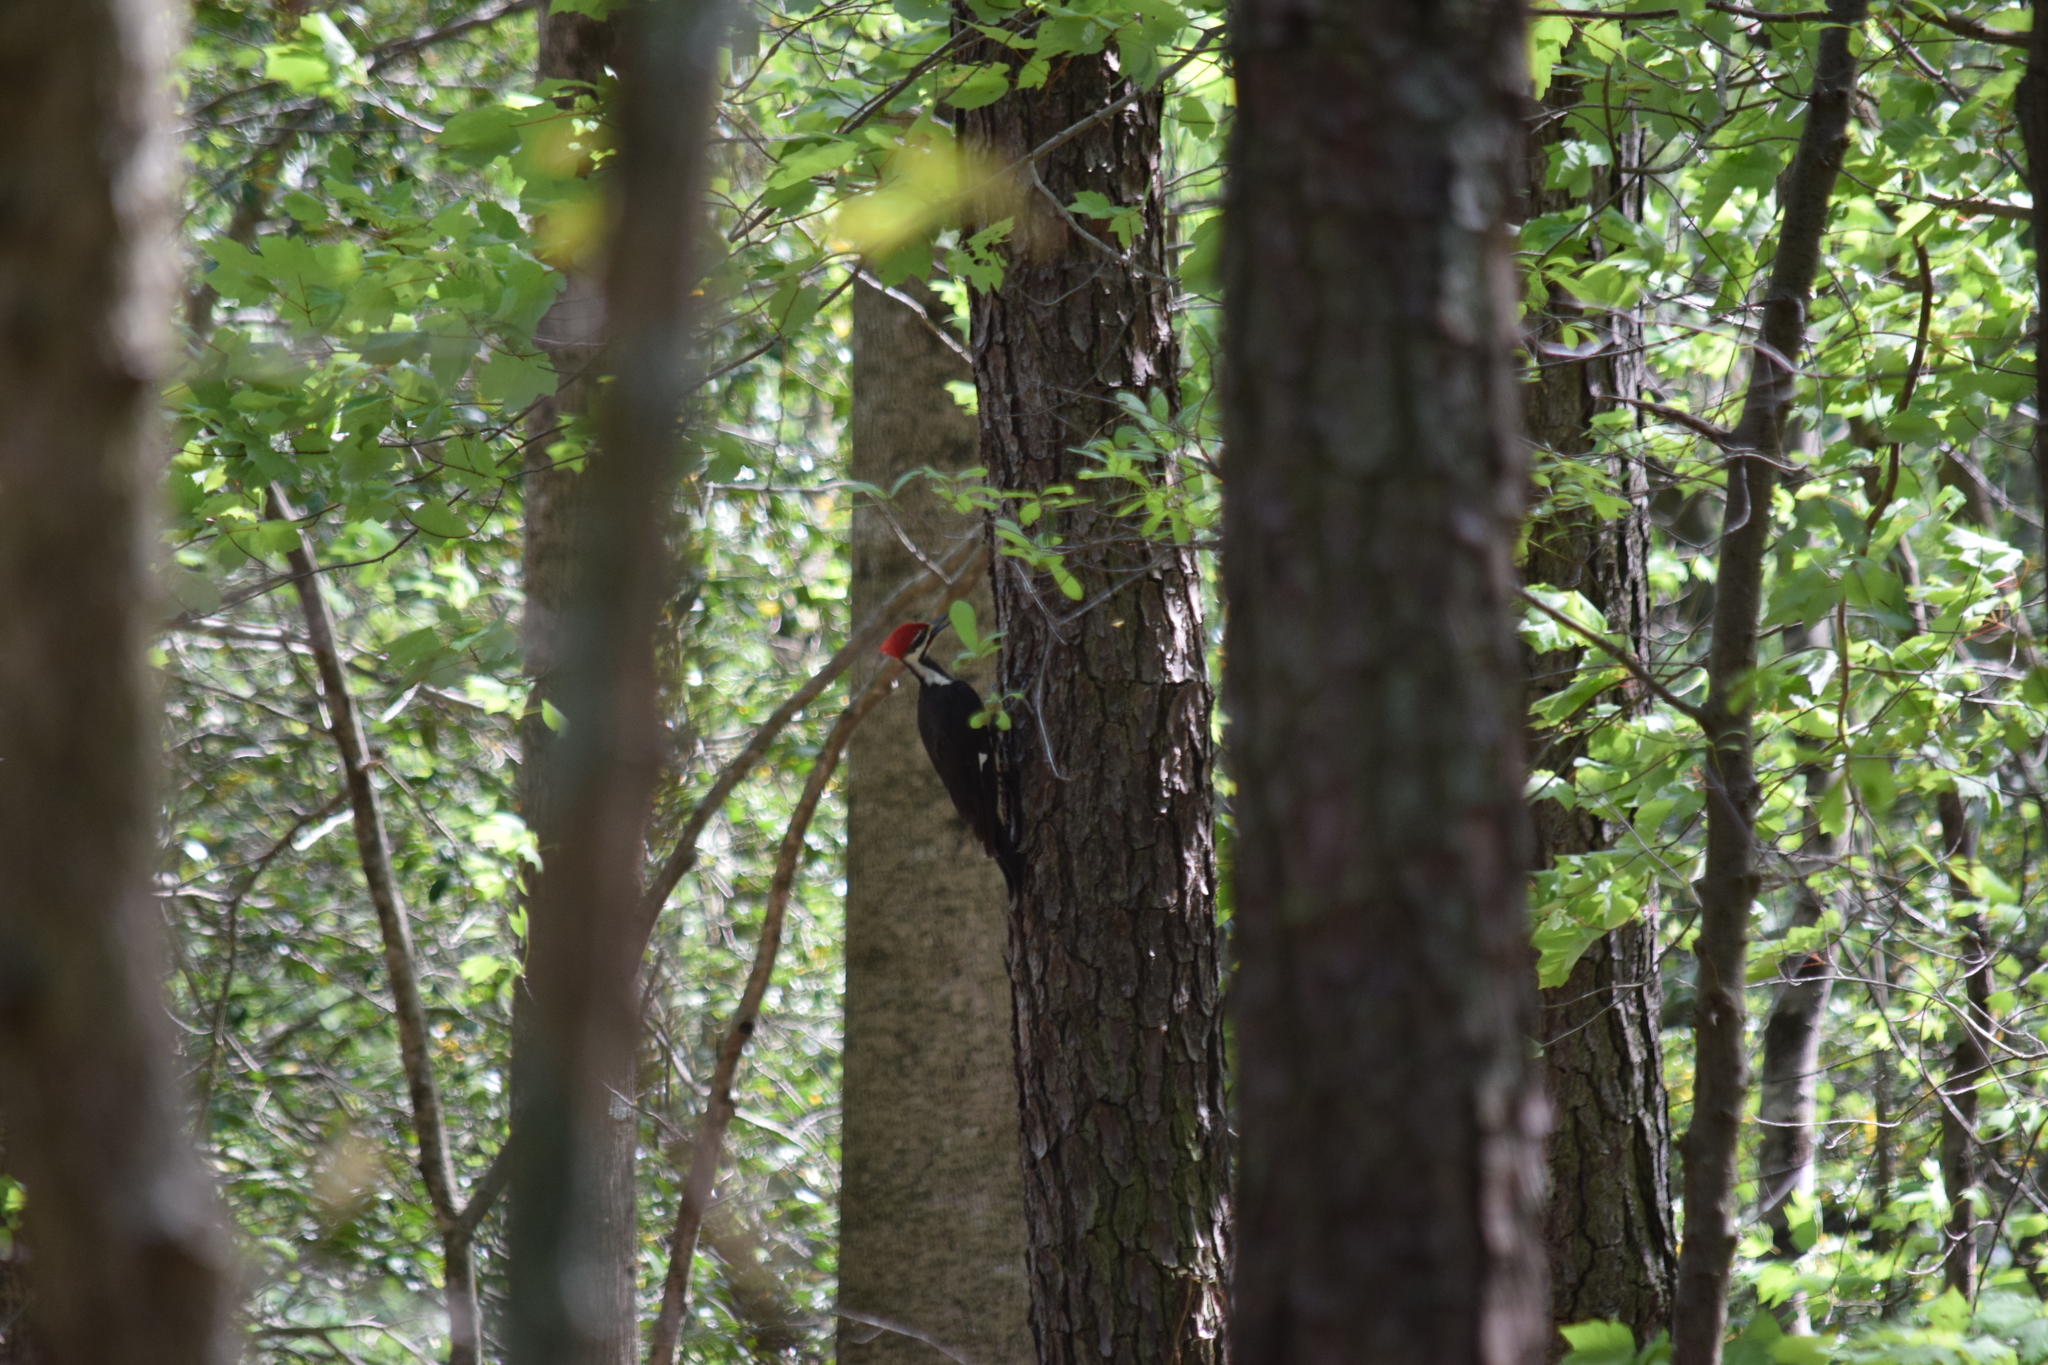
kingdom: Animalia
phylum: Chordata
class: Aves
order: Piciformes
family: Picidae
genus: Dryocopus
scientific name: Dryocopus pileatus
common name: Pileated woodpecker
